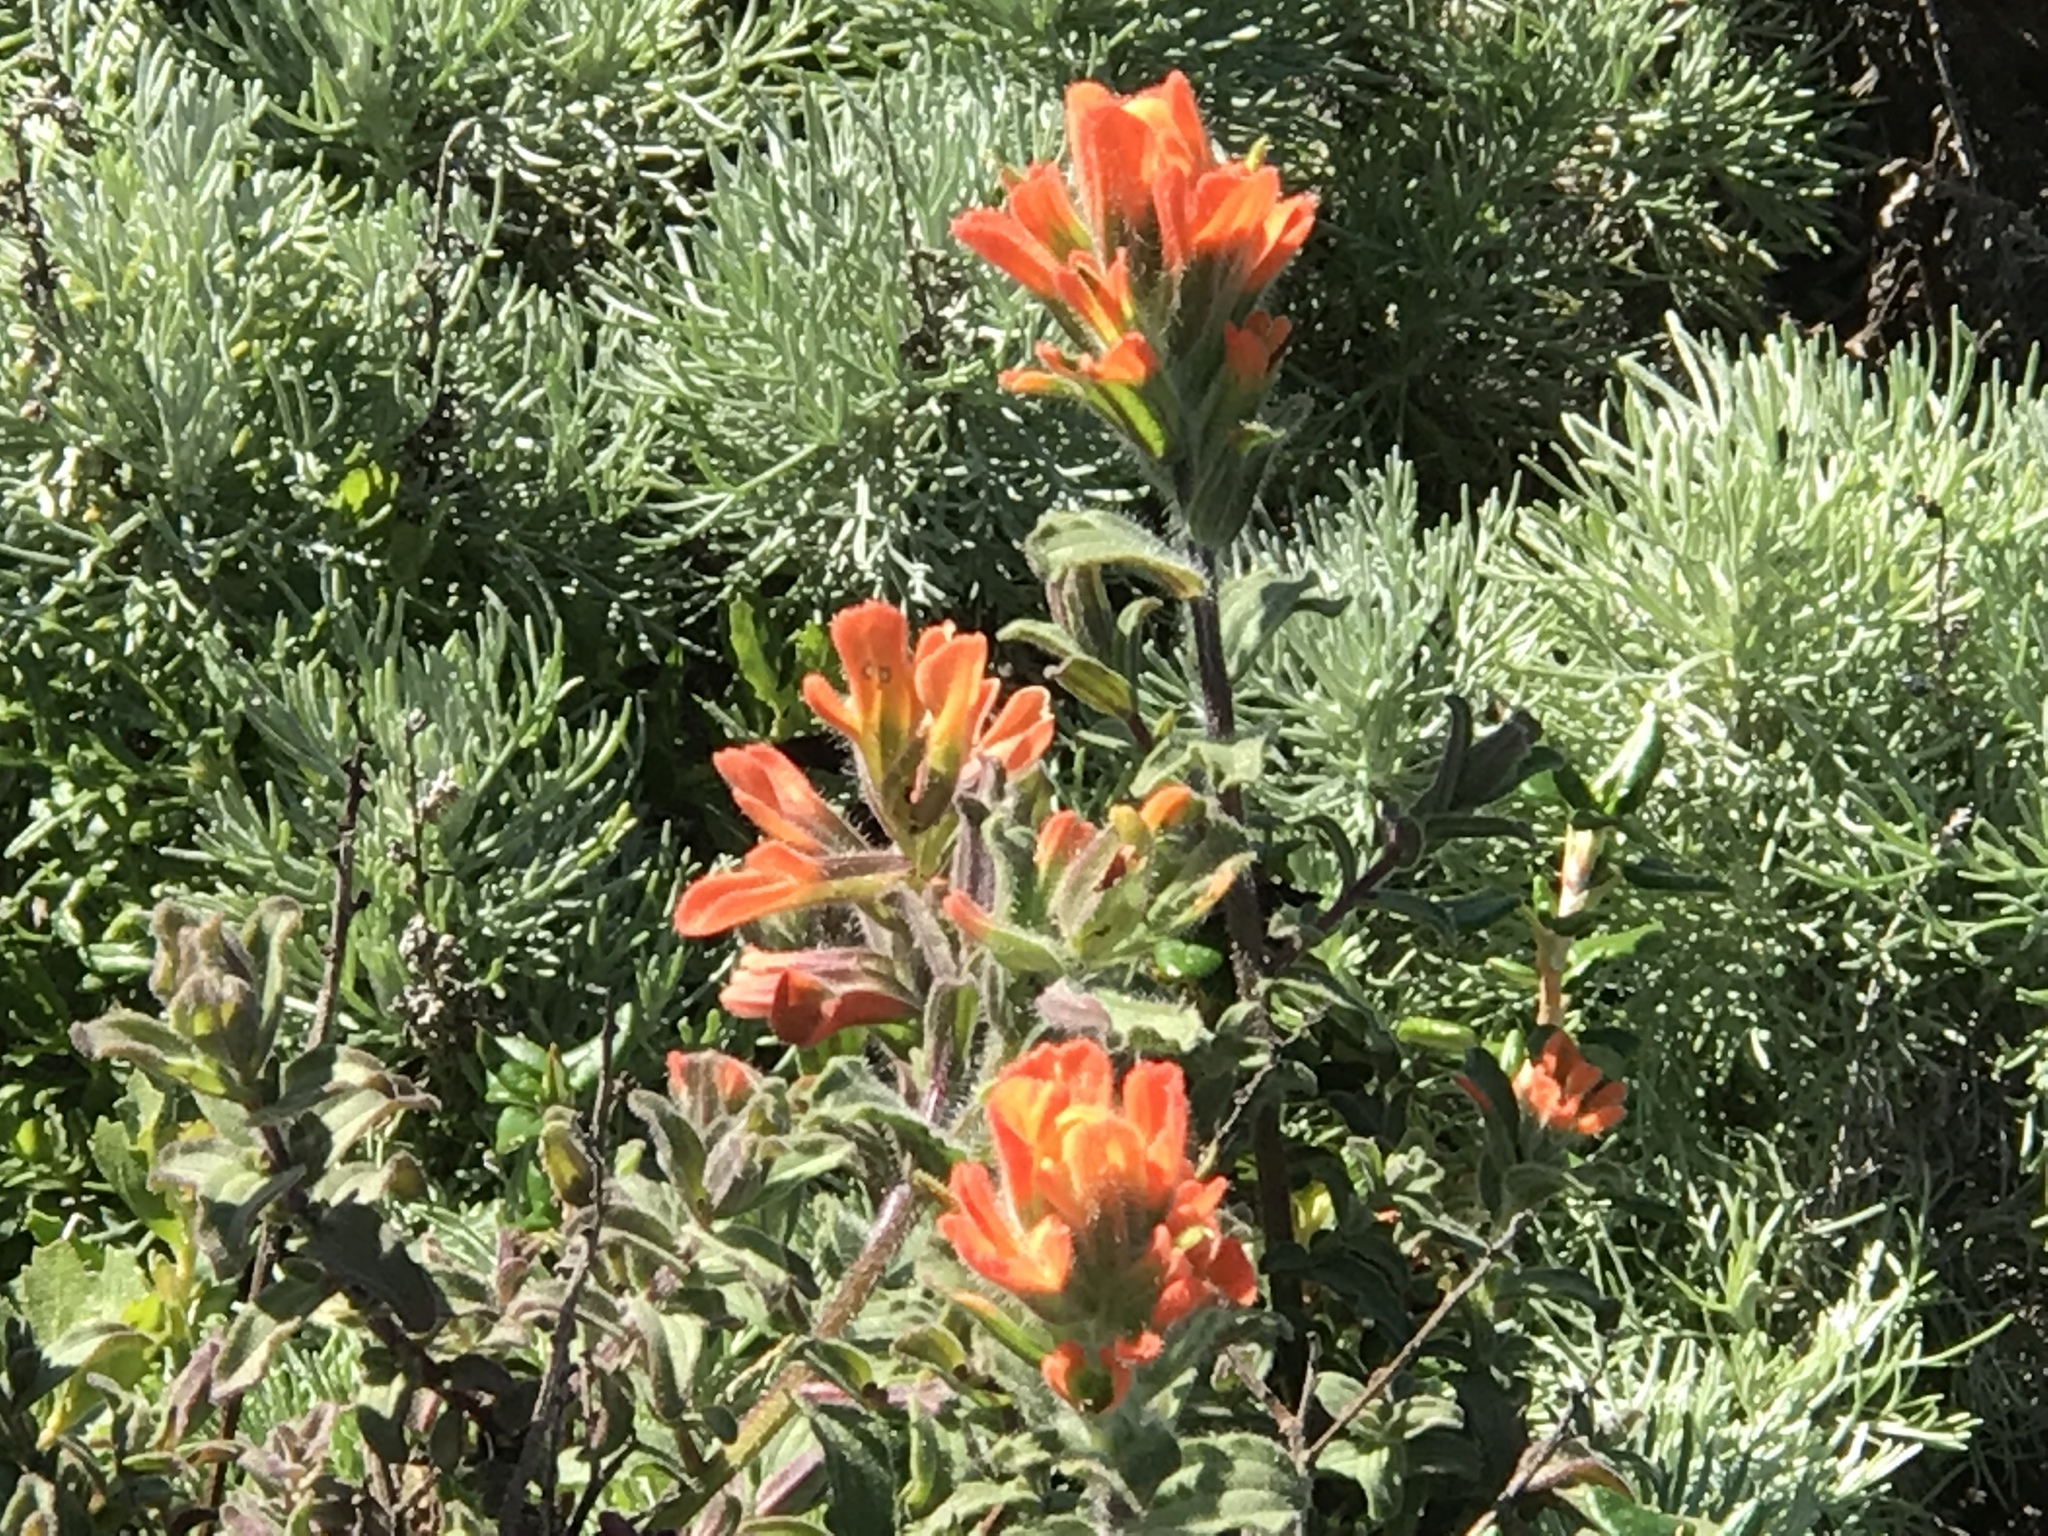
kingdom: Plantae
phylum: Tracheophyta
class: Magnoliopsida
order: Lamiales
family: Orobanchaceae
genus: Castilleja
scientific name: Castilleja foliolosa
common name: Woolly indian paintbrush
